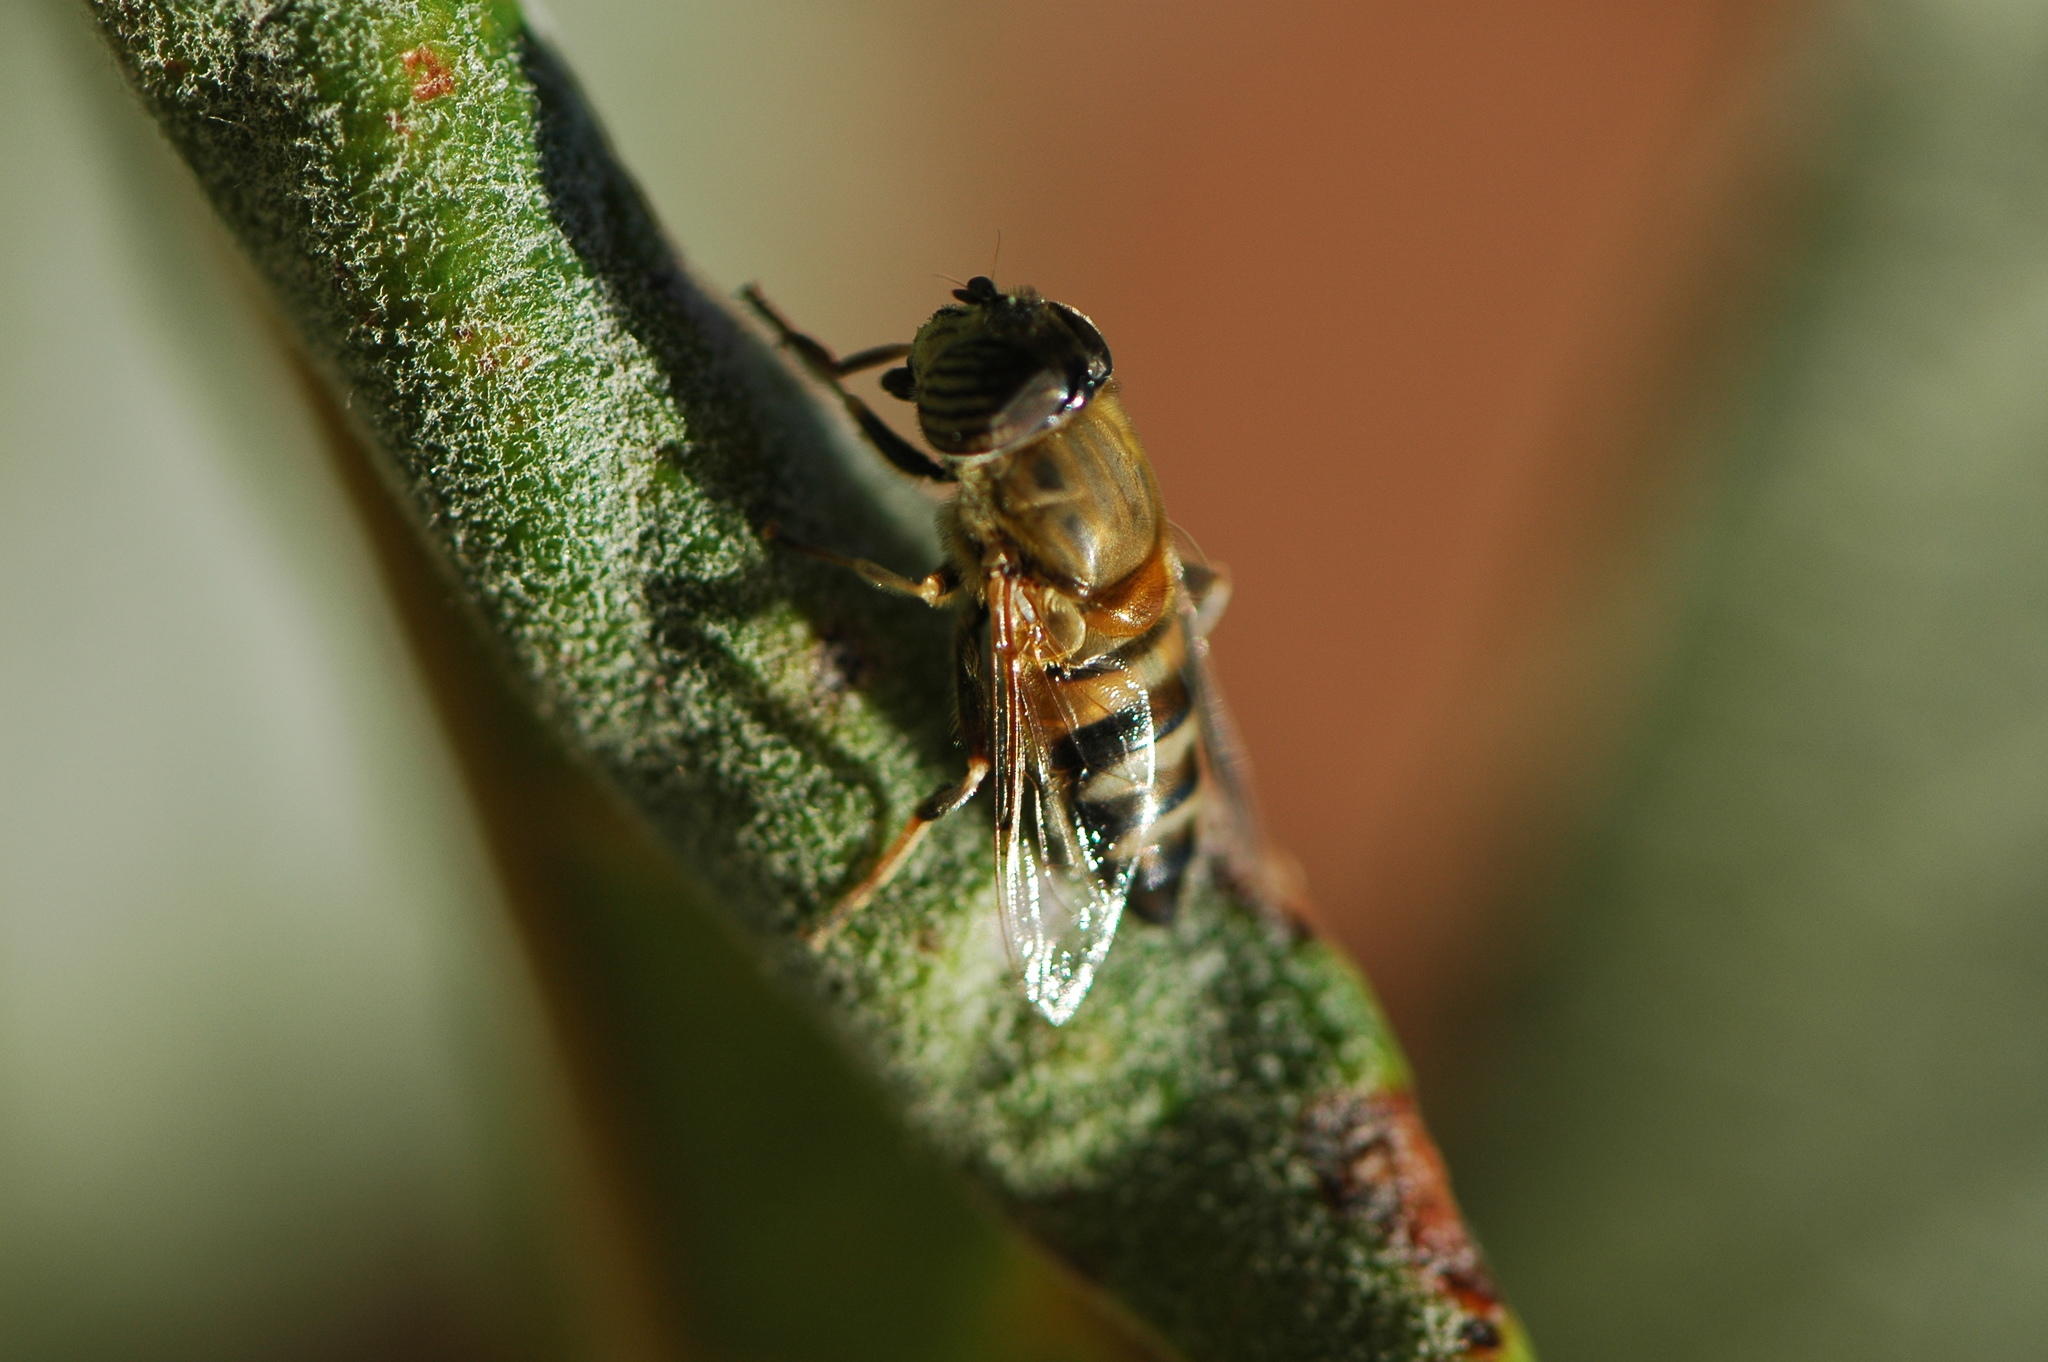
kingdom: Animalia
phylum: Arthropoda
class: Insecta
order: Diptera
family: Syrphidae
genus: Eristalinus
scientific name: Eristalinus taeniops
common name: Syrphid fly
